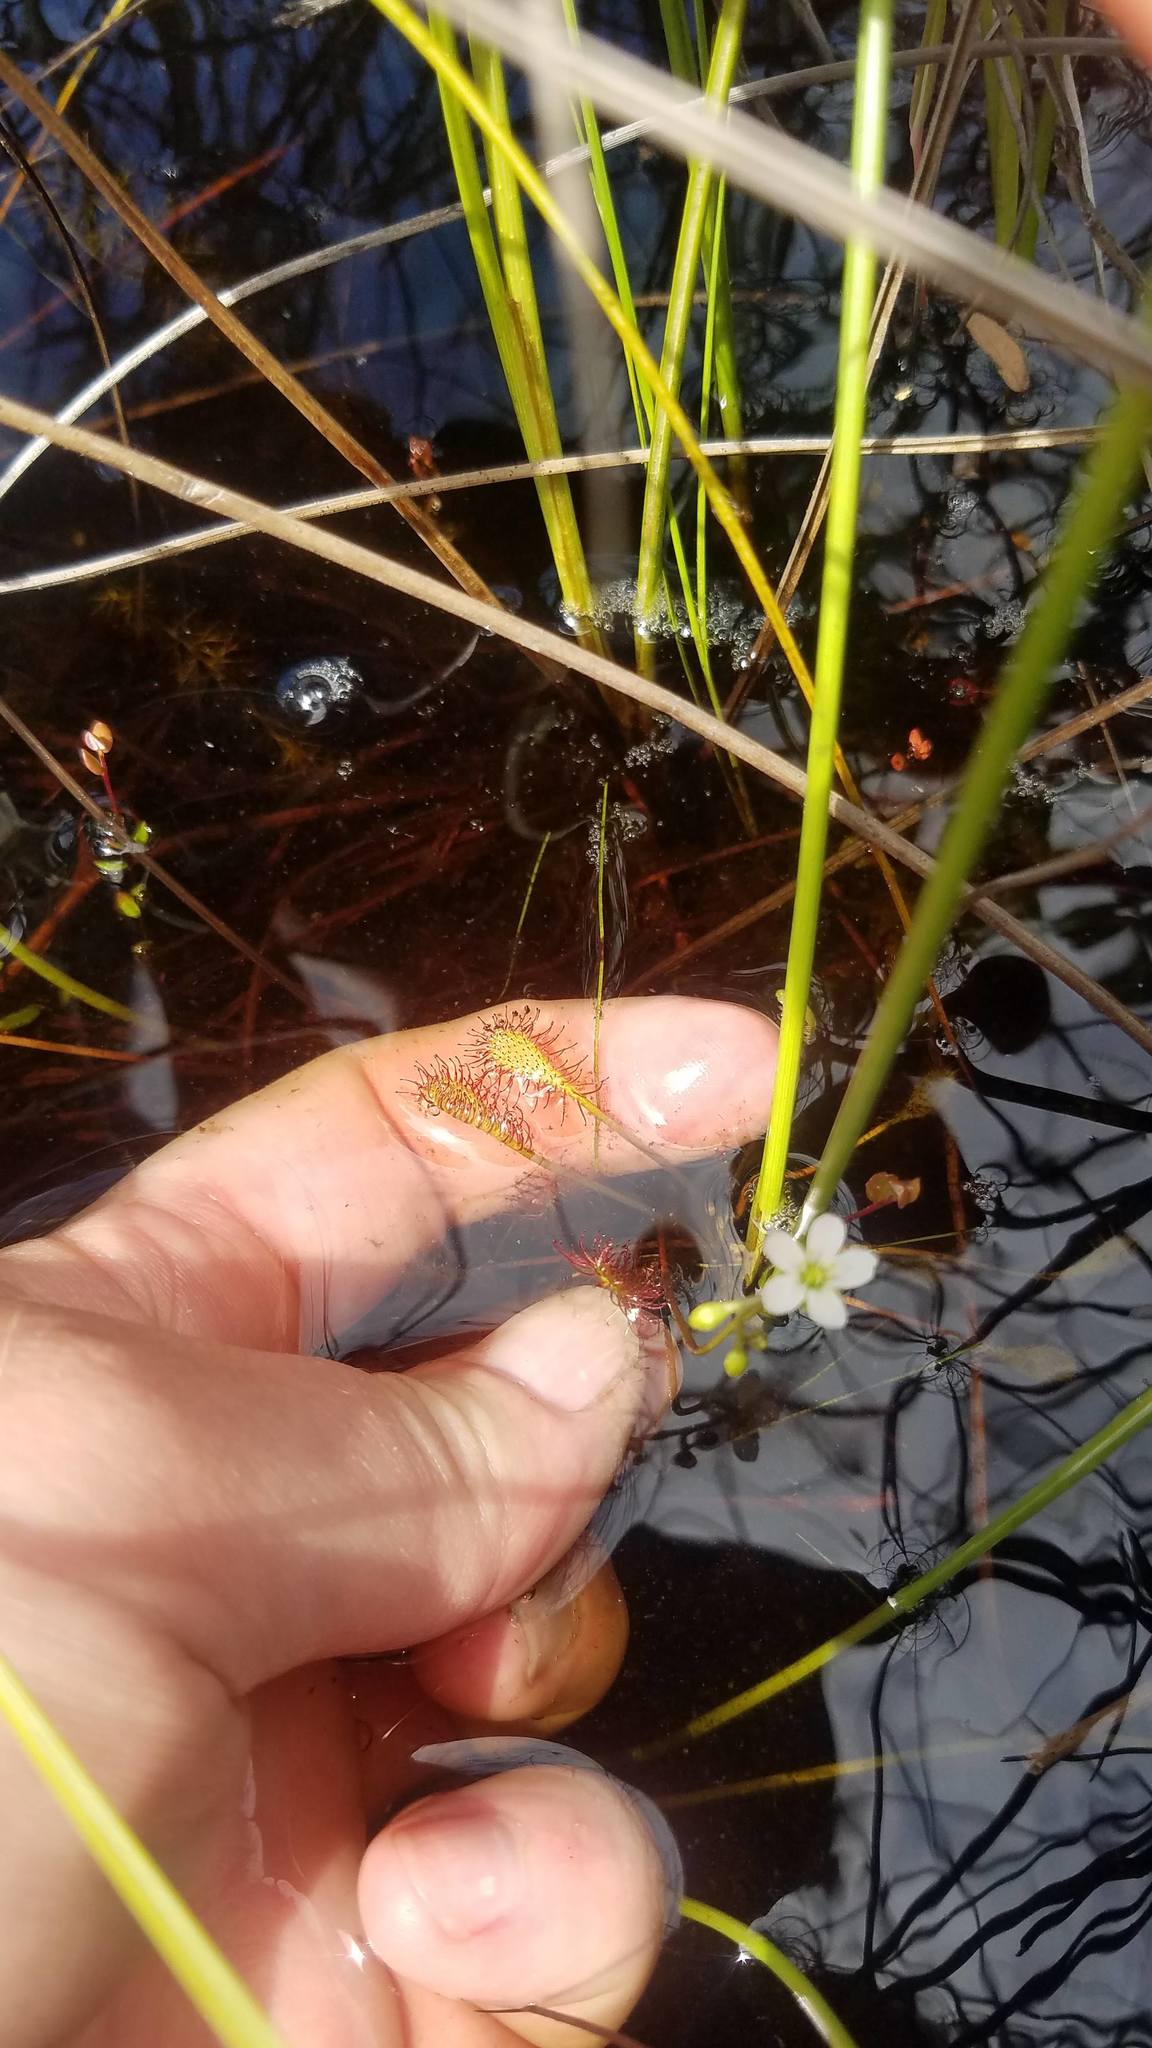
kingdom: Plantae
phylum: Tracheophyta
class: Magnoliopsida
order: Caryophyllales
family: Droseraceae
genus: Drosera
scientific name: Drosera intermedia
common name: Oblong-leaved sundew
